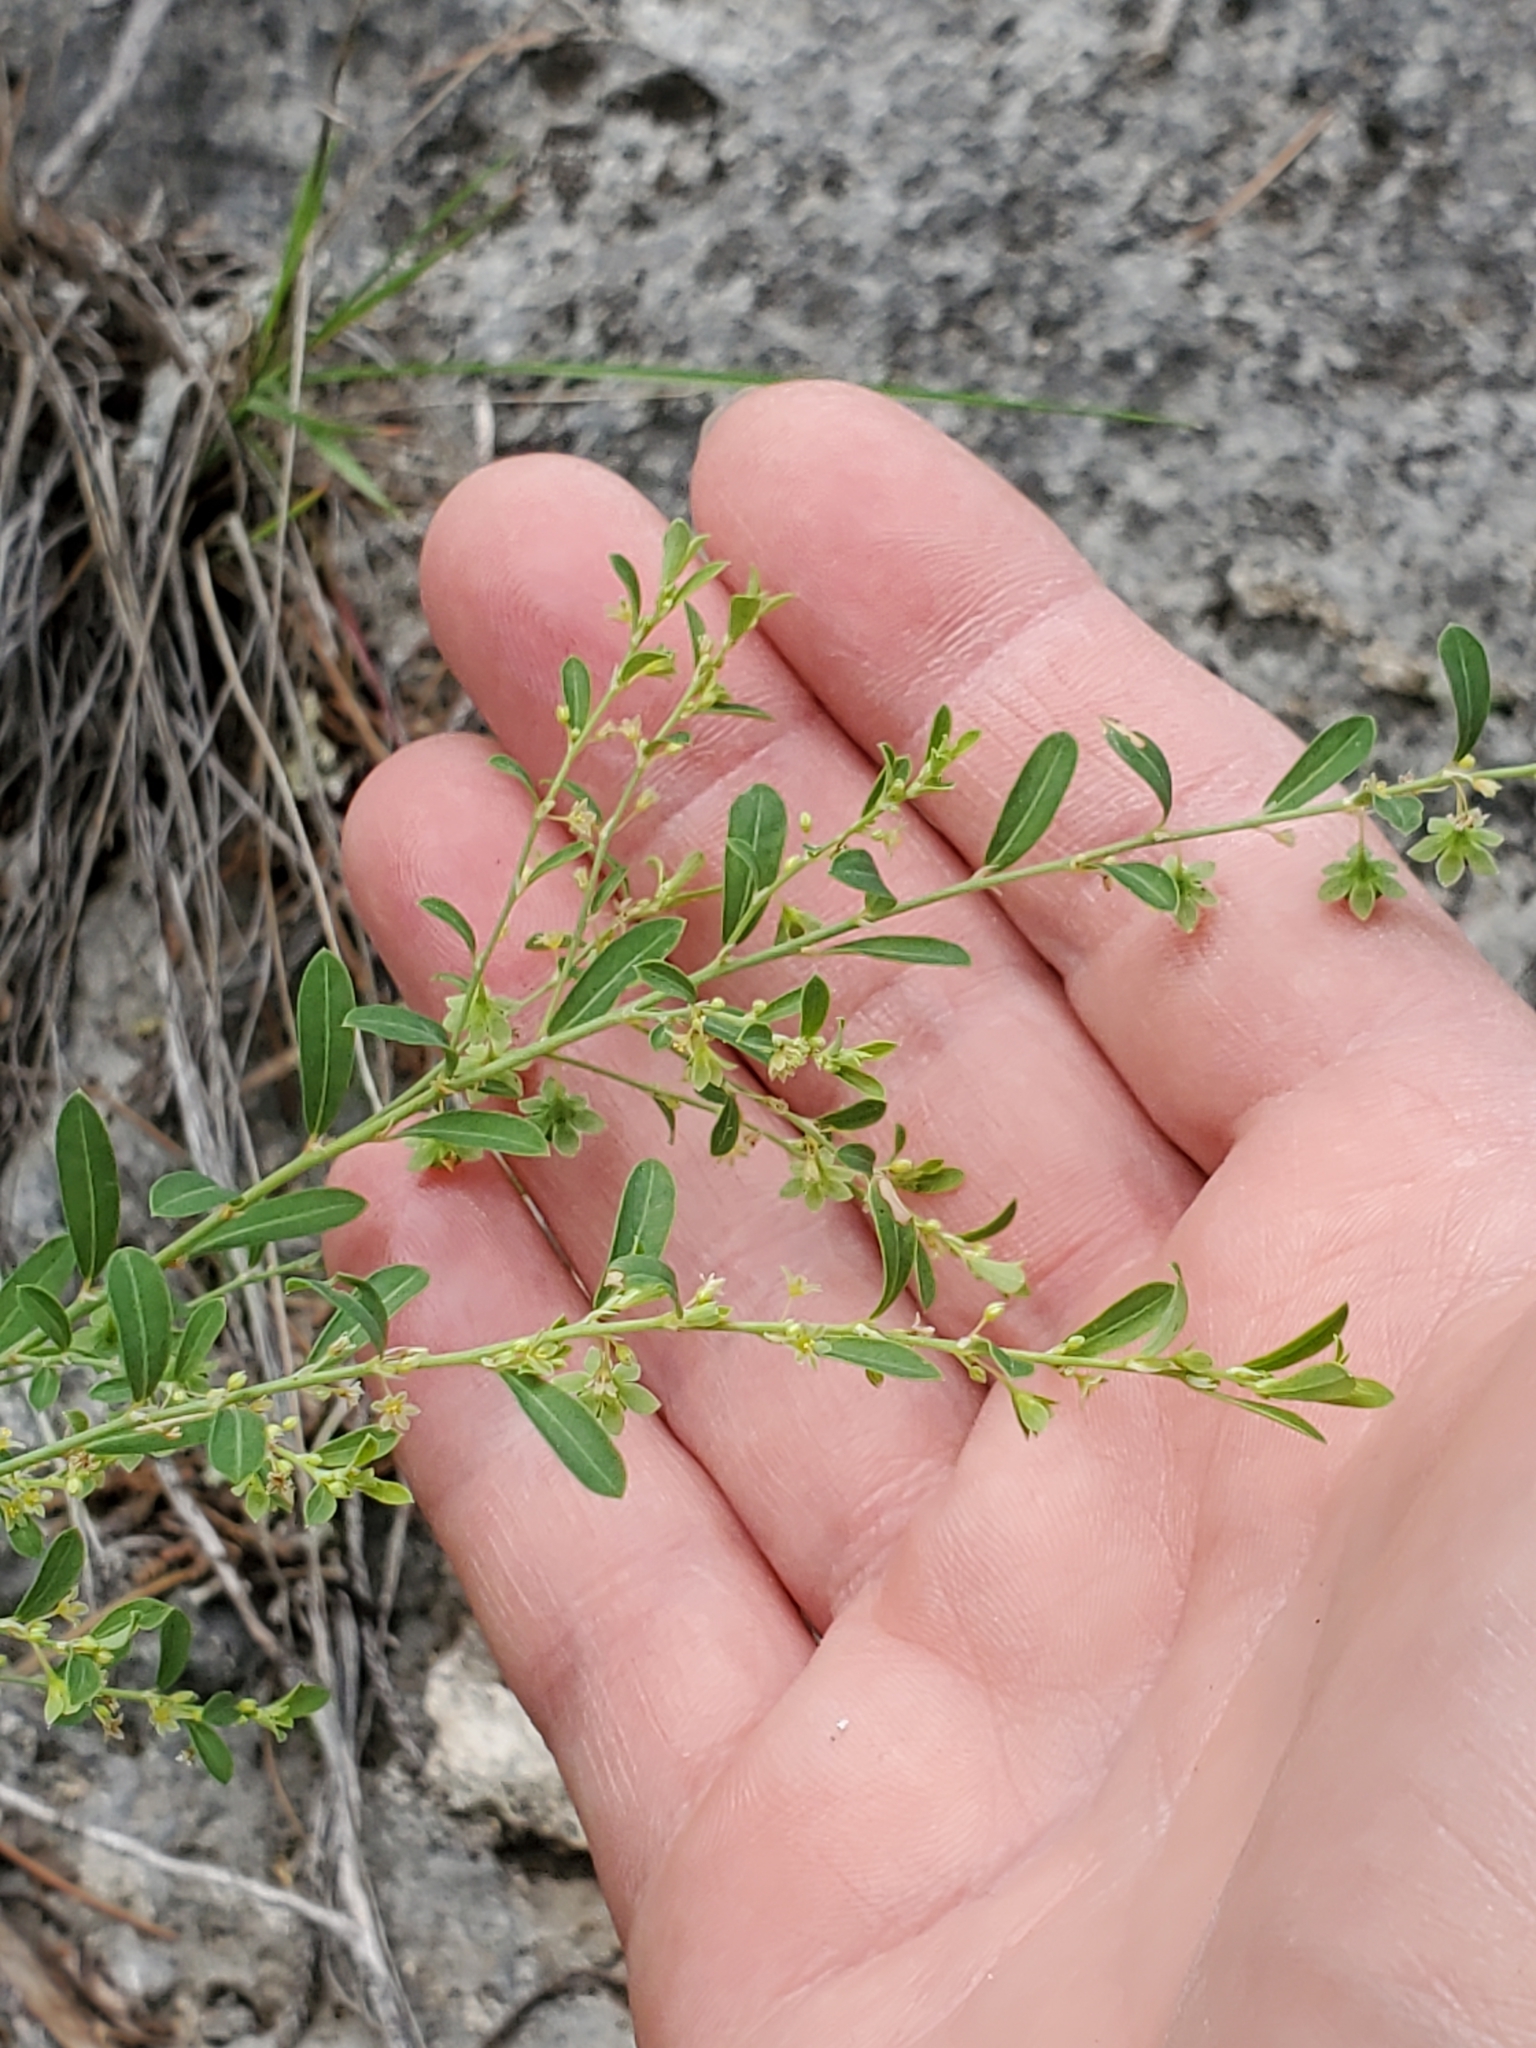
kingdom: Plantae
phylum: Tracheophyta
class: Magnoliopsida
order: Malpighiales
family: Phyllanthaceae
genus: Phyllanthus
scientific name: Phyllanthus polygonoides
